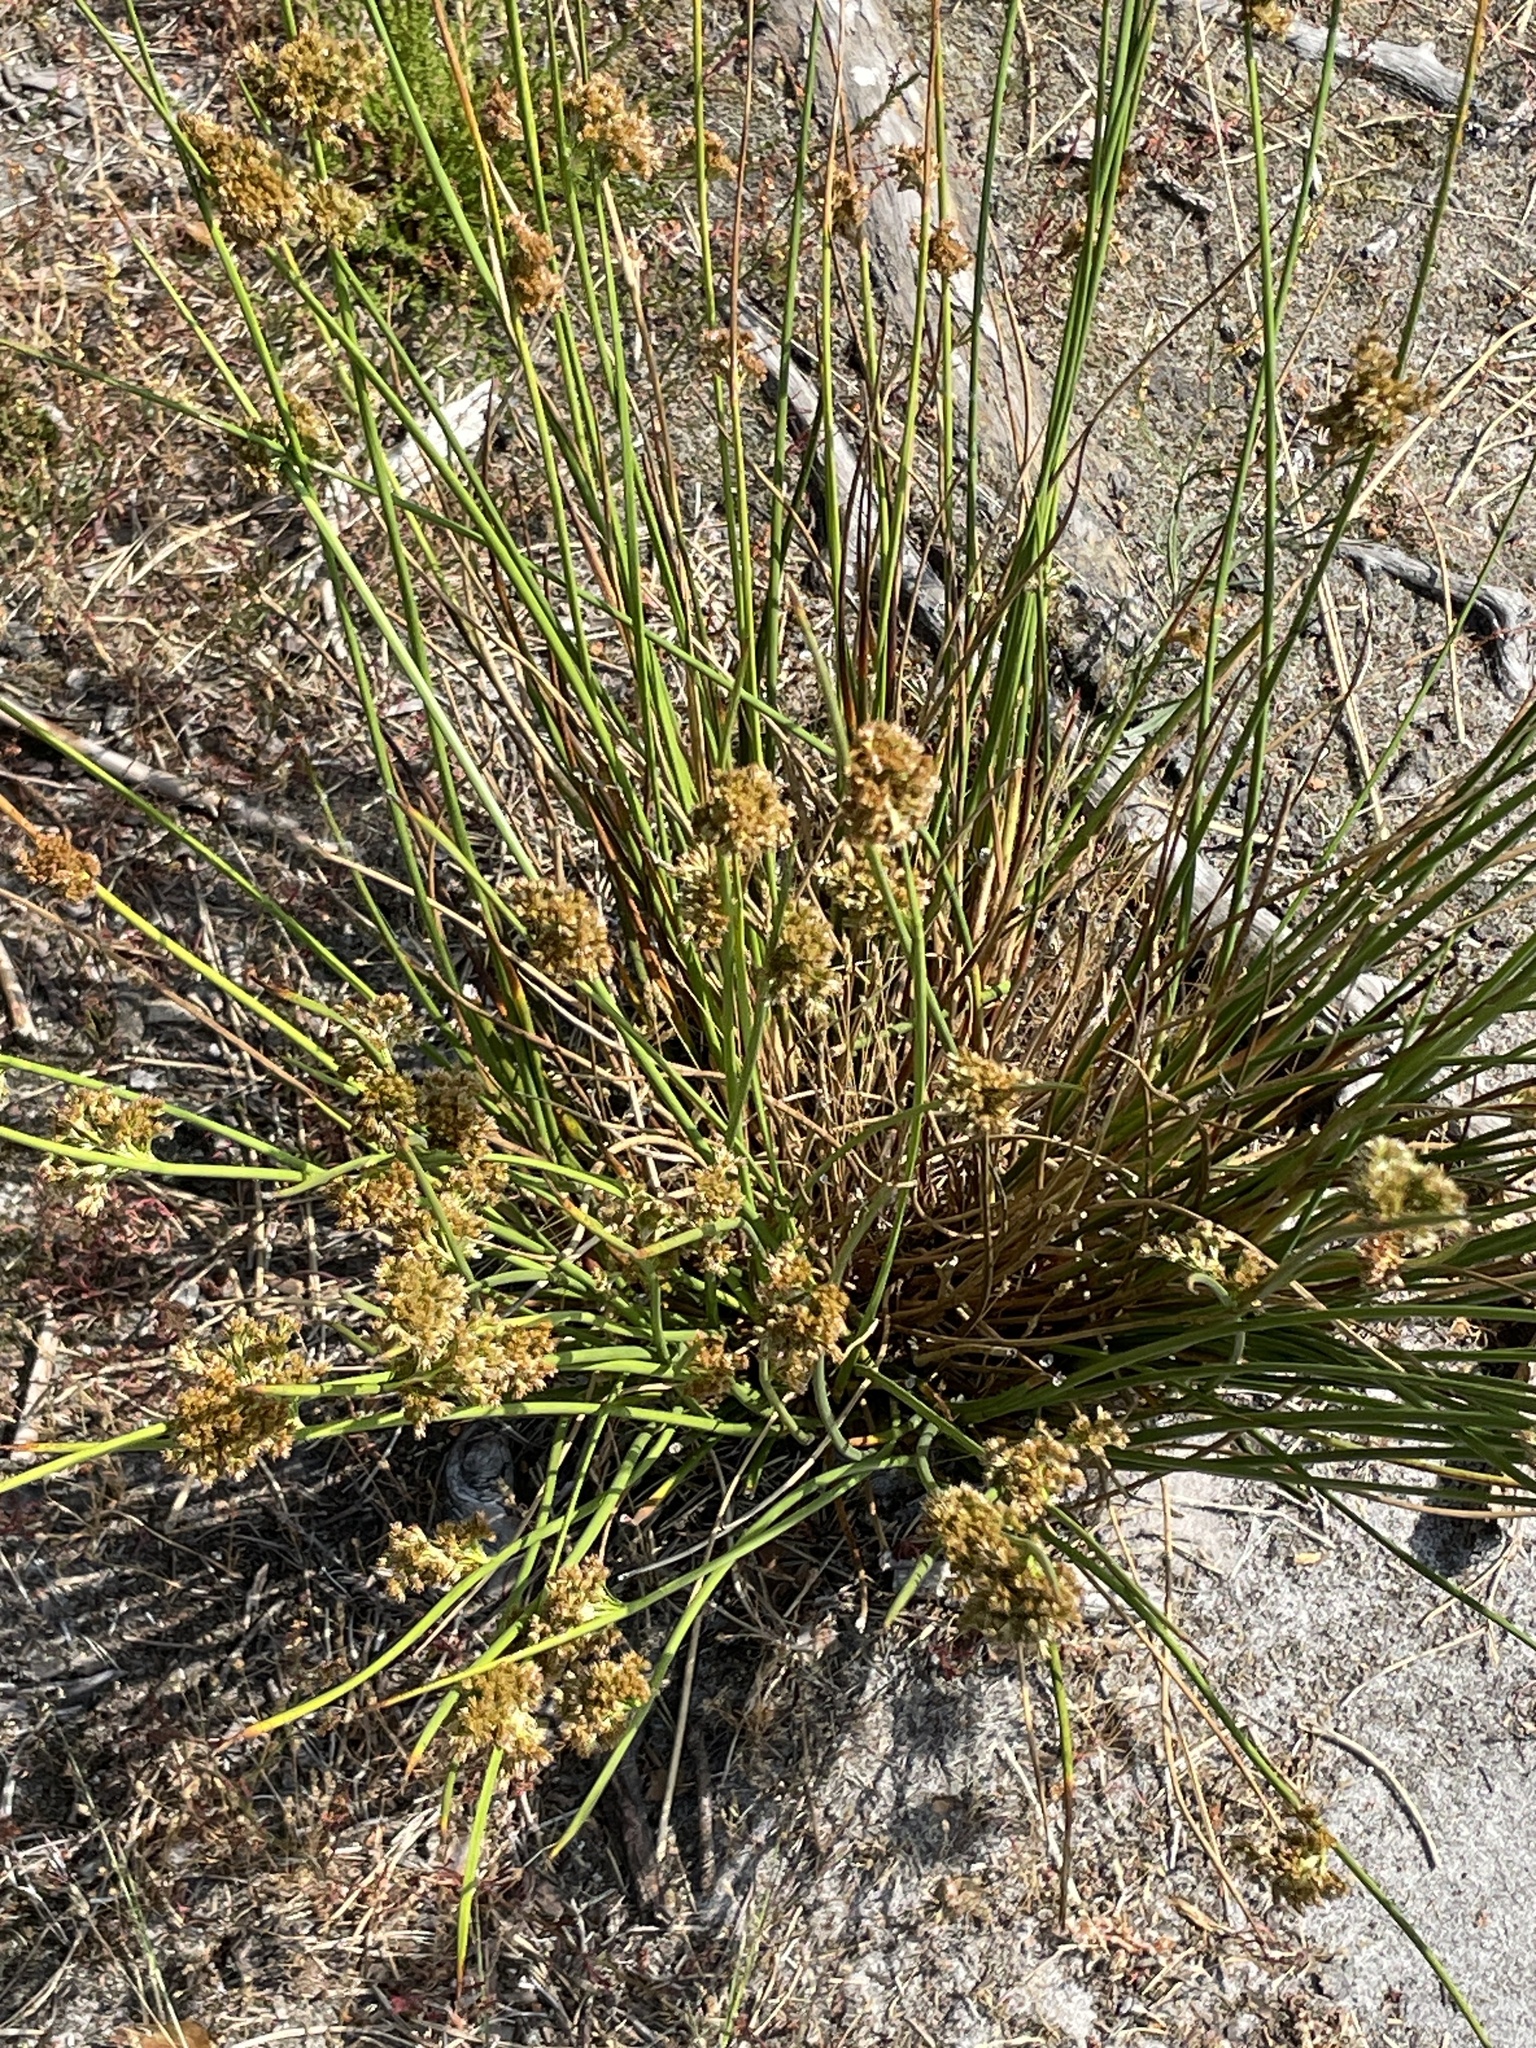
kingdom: Plantae
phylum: Tracheophyta
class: Liliopsida
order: Poales
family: Juncaceae
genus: Juncus
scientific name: Juncus effusus
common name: Soft rush
